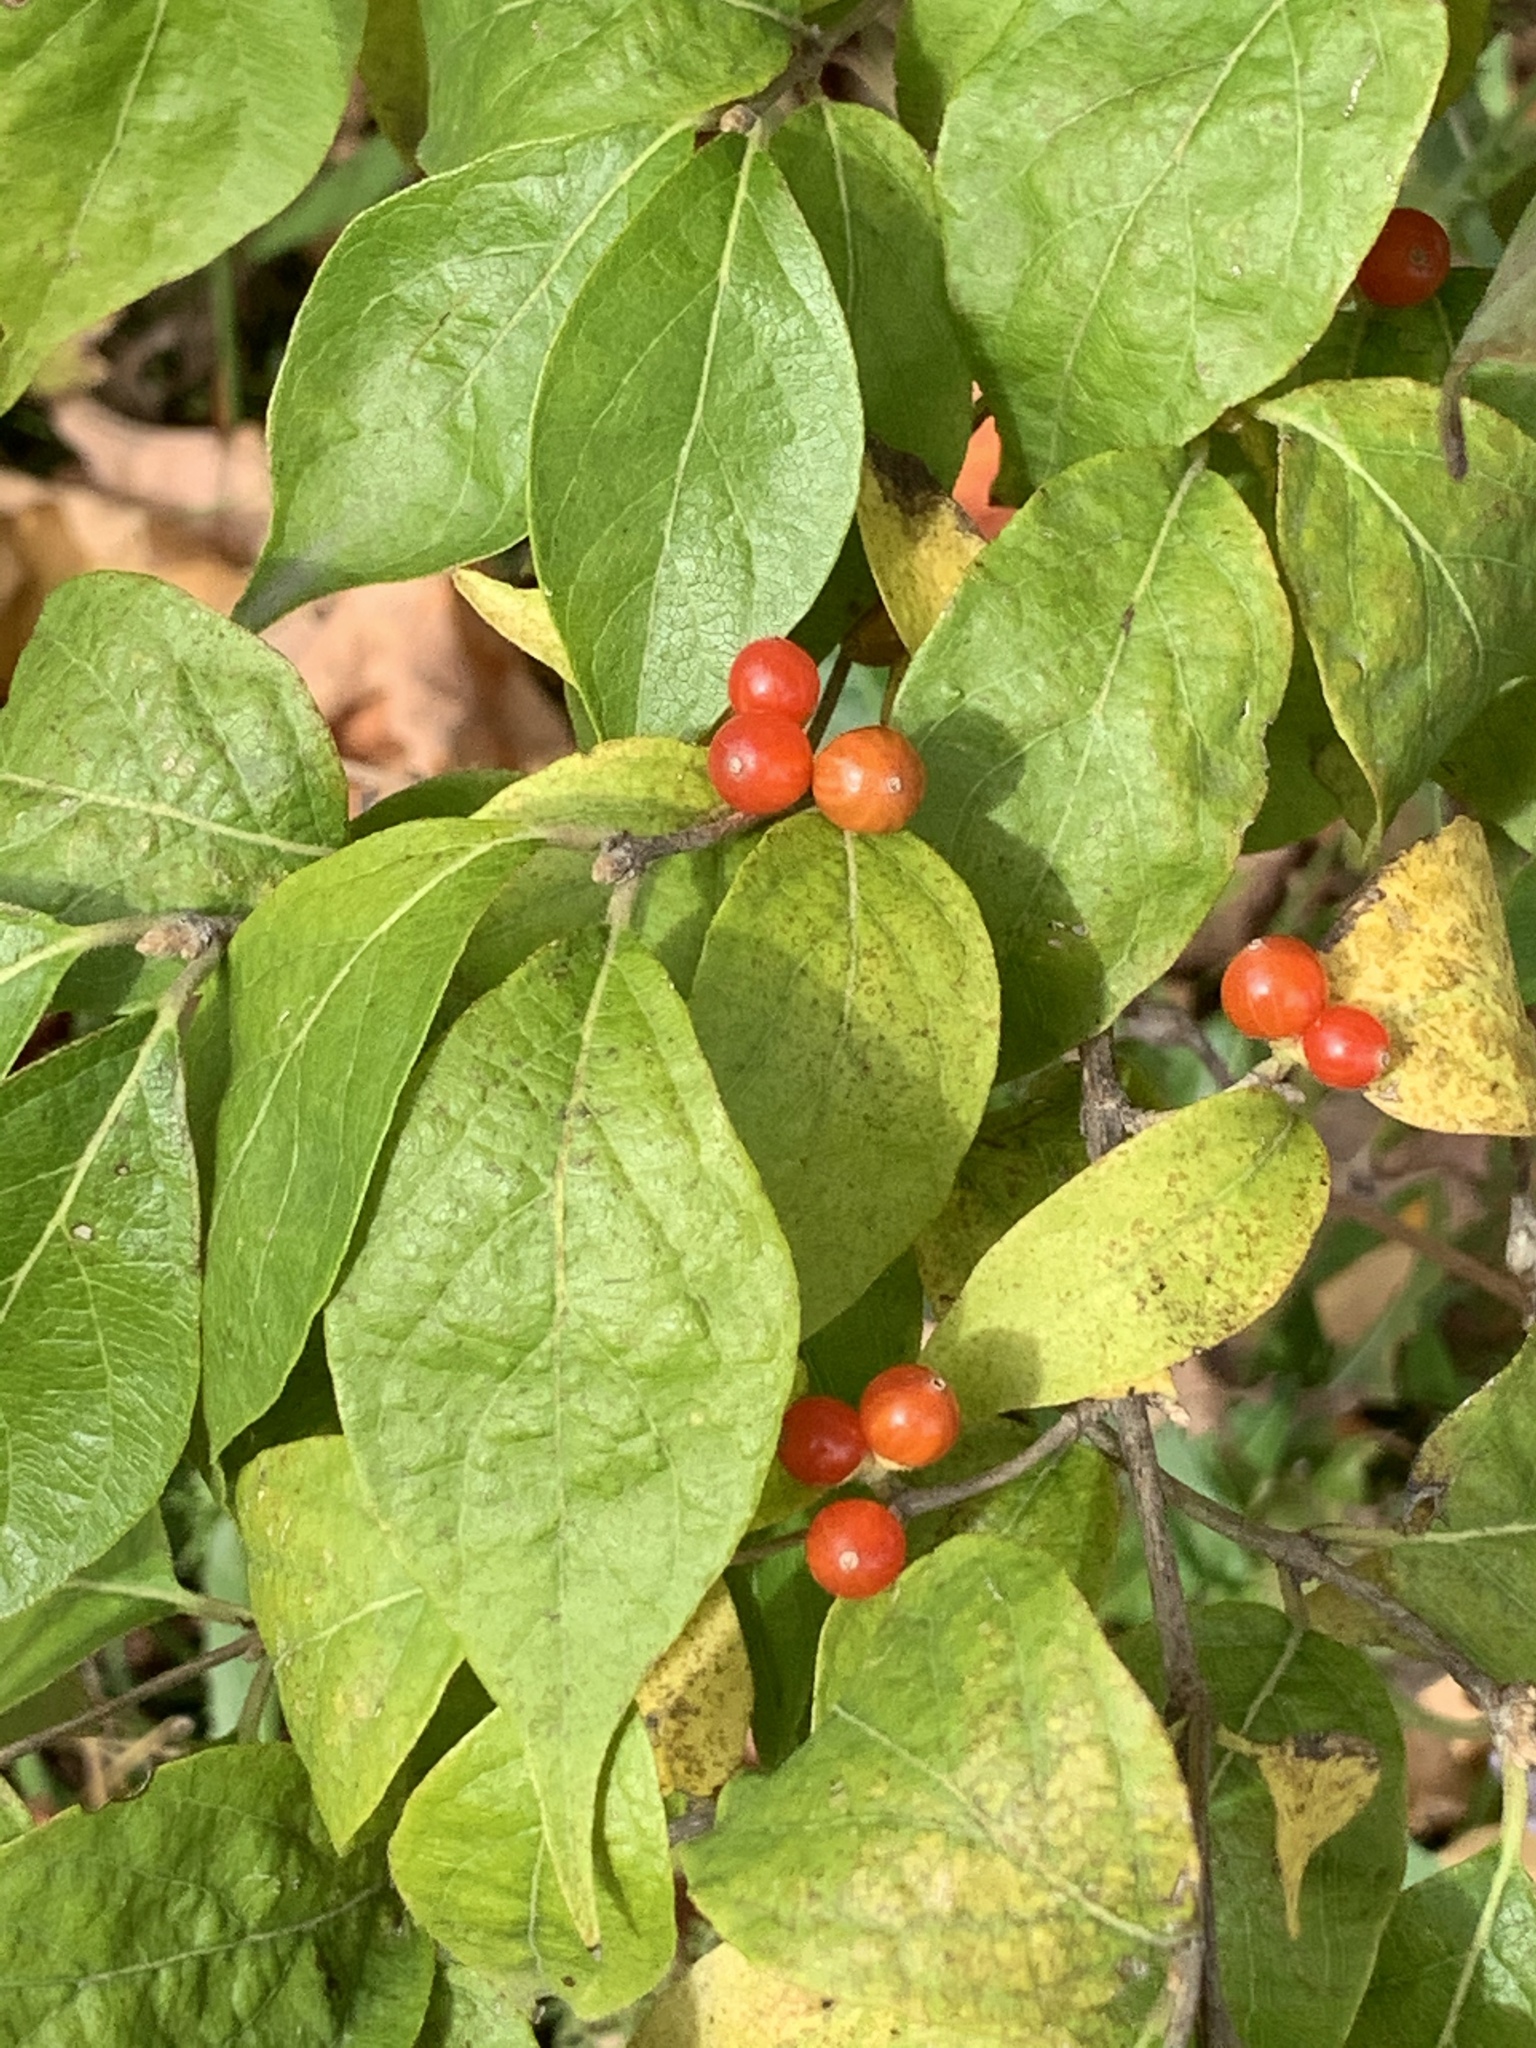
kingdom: Plantae
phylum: Tracheophyta
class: Magnoliopsida
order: Dipsacales
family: Caprifoliaceae
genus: Lonicera
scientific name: Lonicera maackii
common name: Amur honeysuckle
